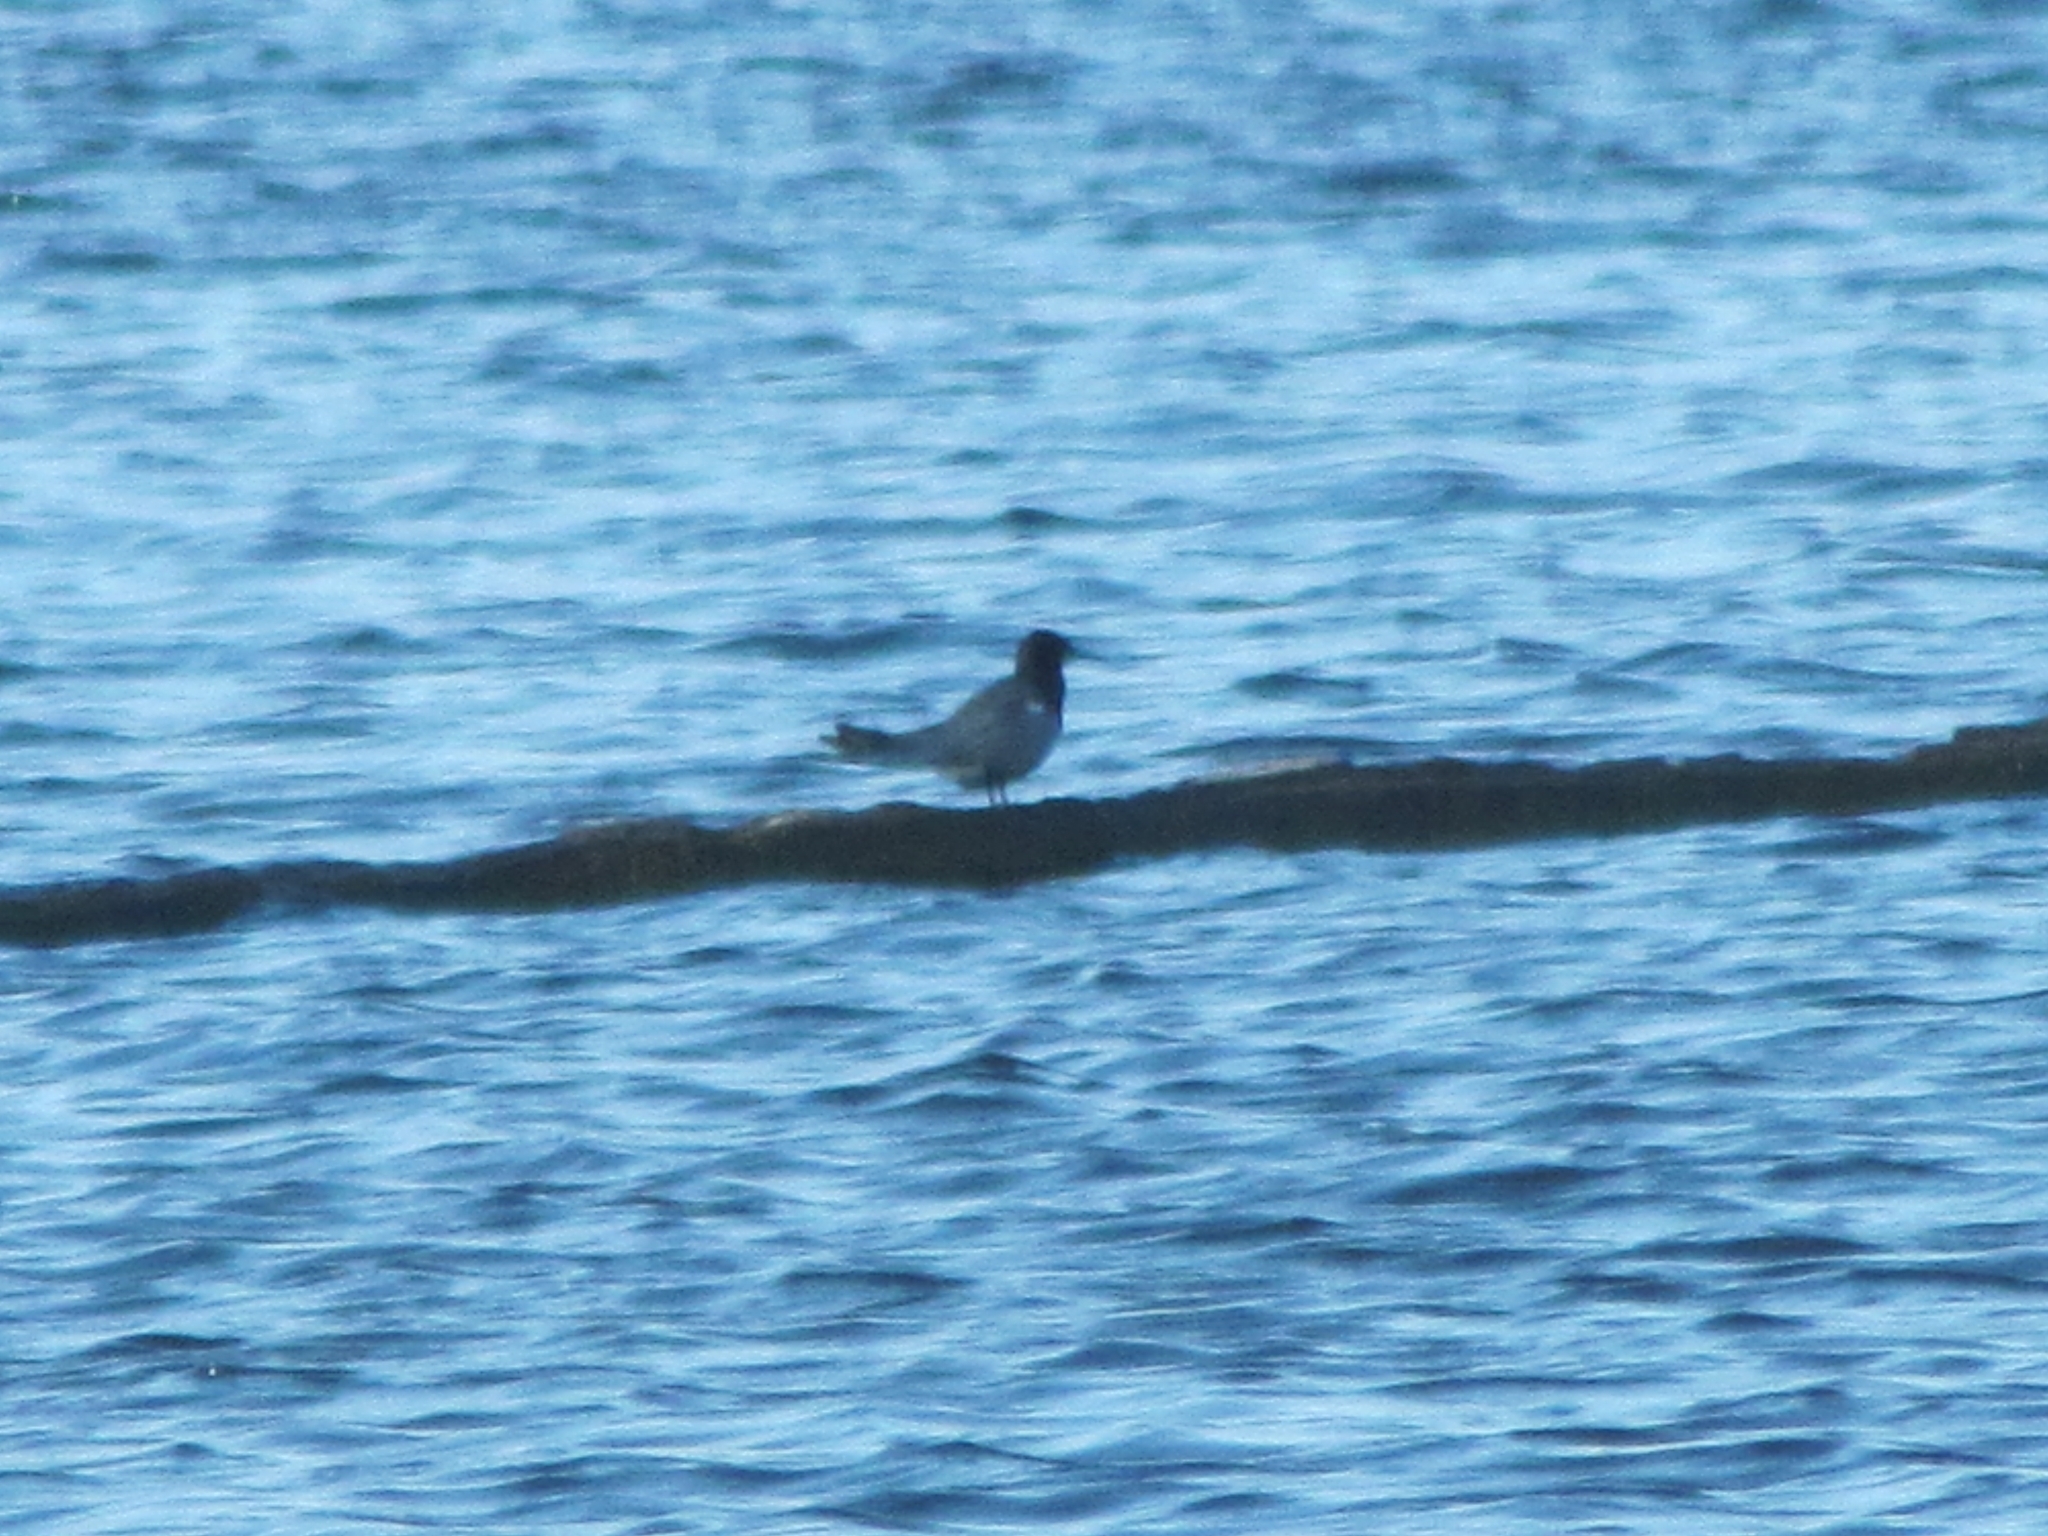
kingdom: Animalia
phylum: Chordata
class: Aves
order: Charadriiformes
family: Laridae
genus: Chlidonias
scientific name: Chlidonias niger
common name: Black tern
